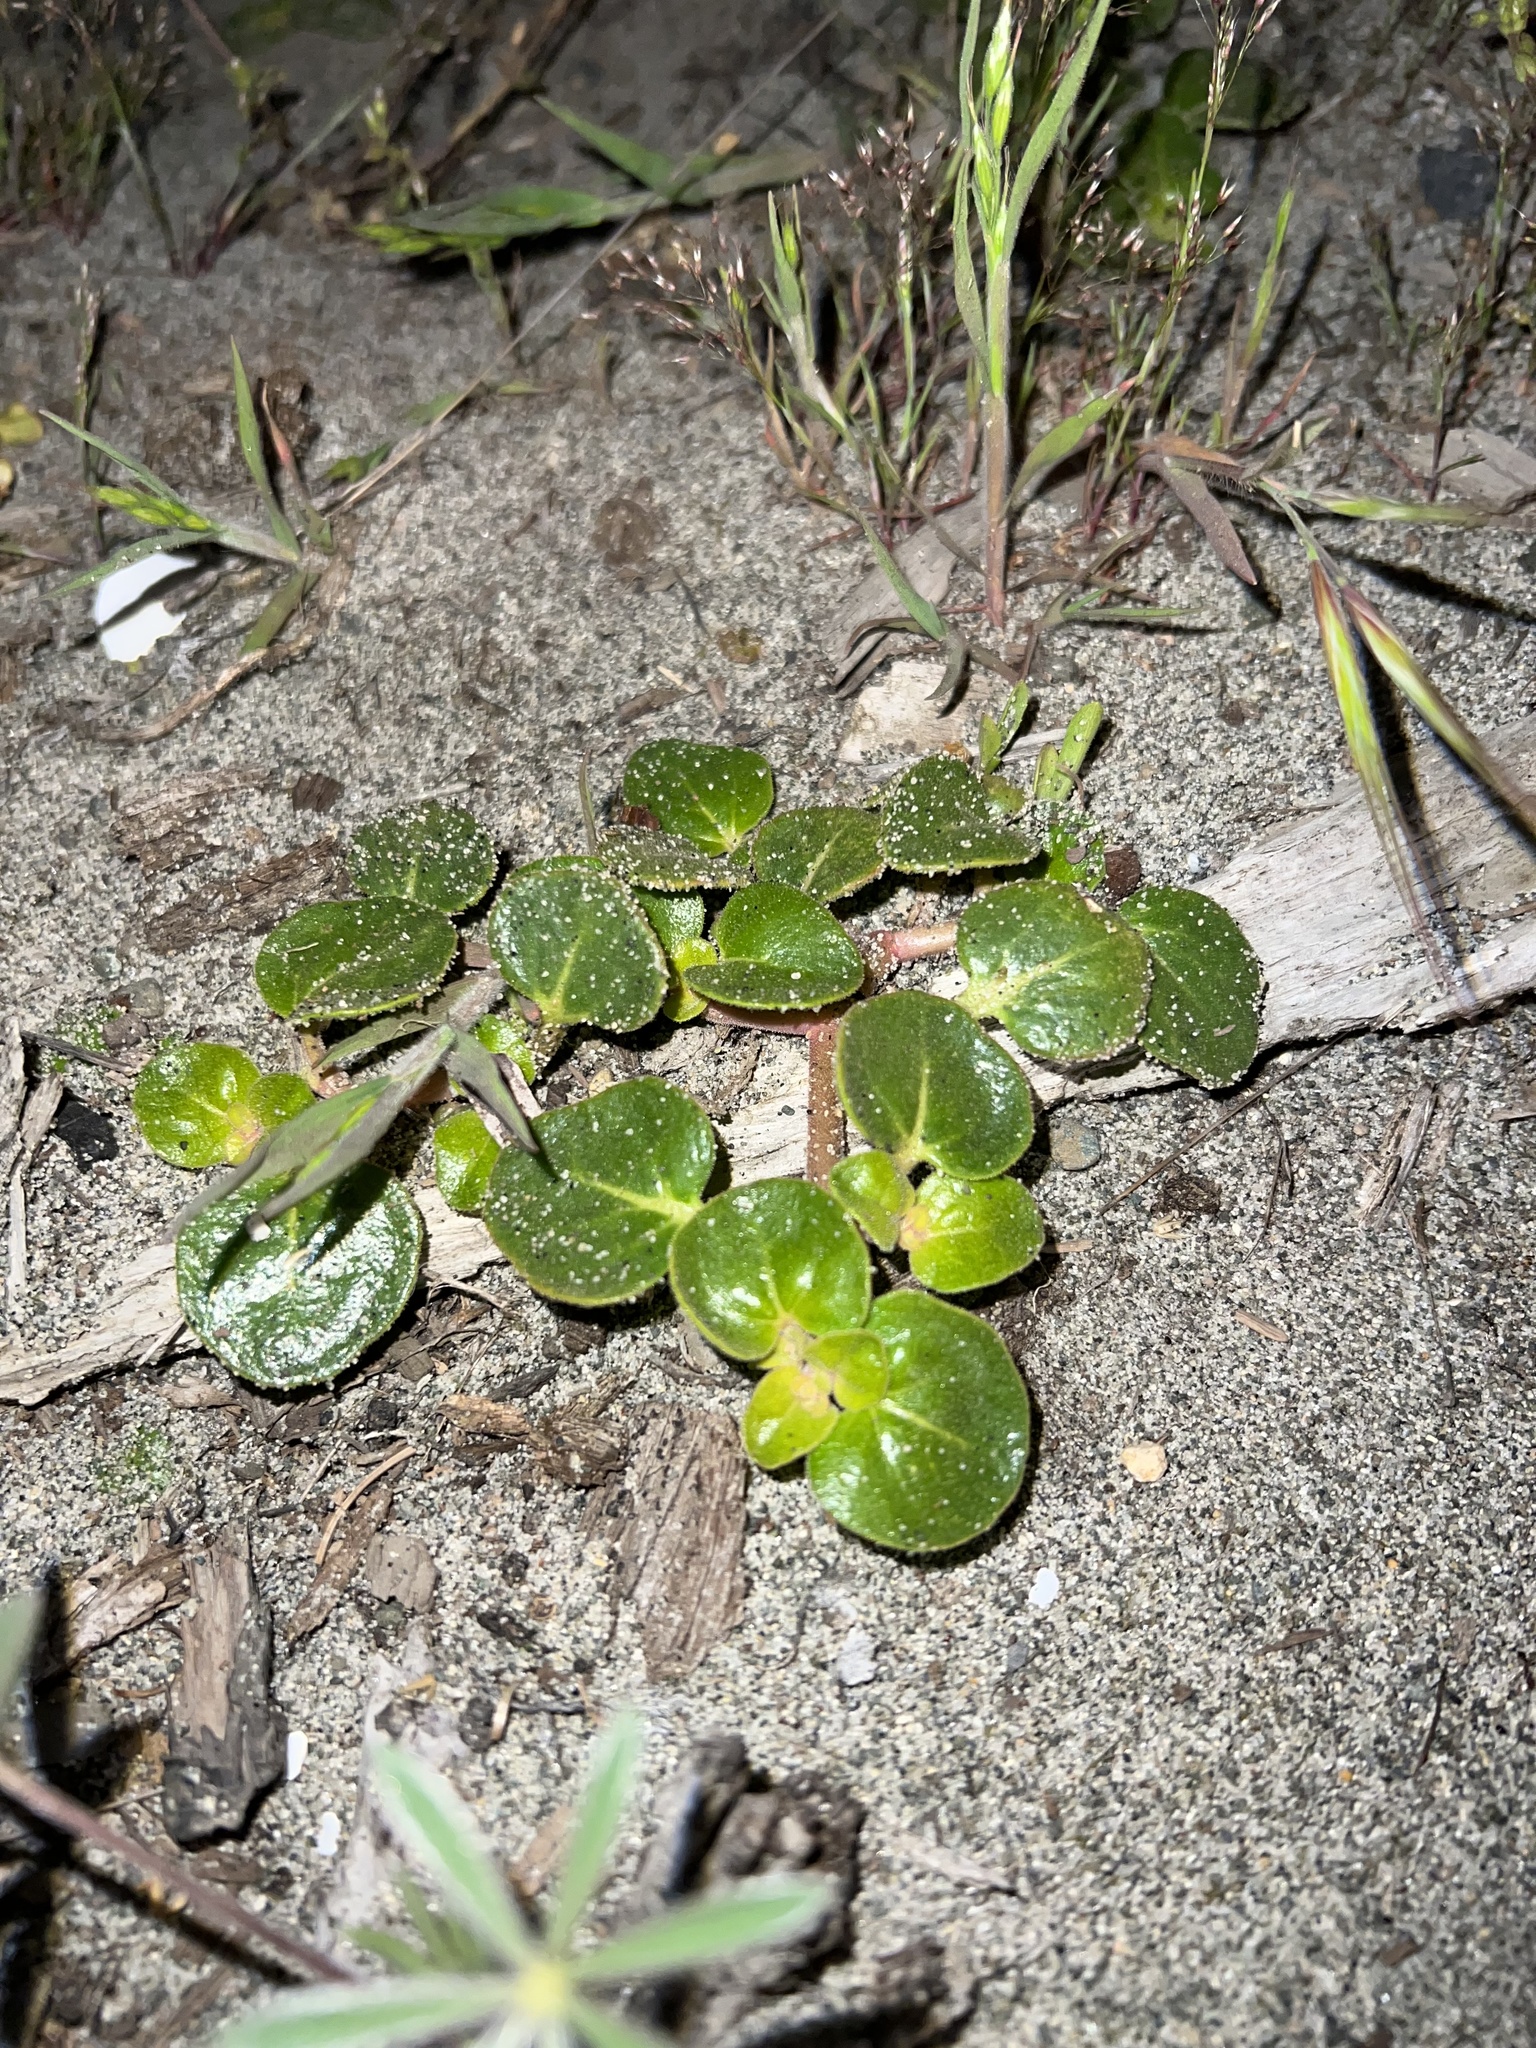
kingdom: Plantae
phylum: Tracheophyta
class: Magnoliopsida
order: Caryophyllales
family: Nyctaginaceae
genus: Abronia
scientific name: Abronia latifolia
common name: Yellow sand-verbena
